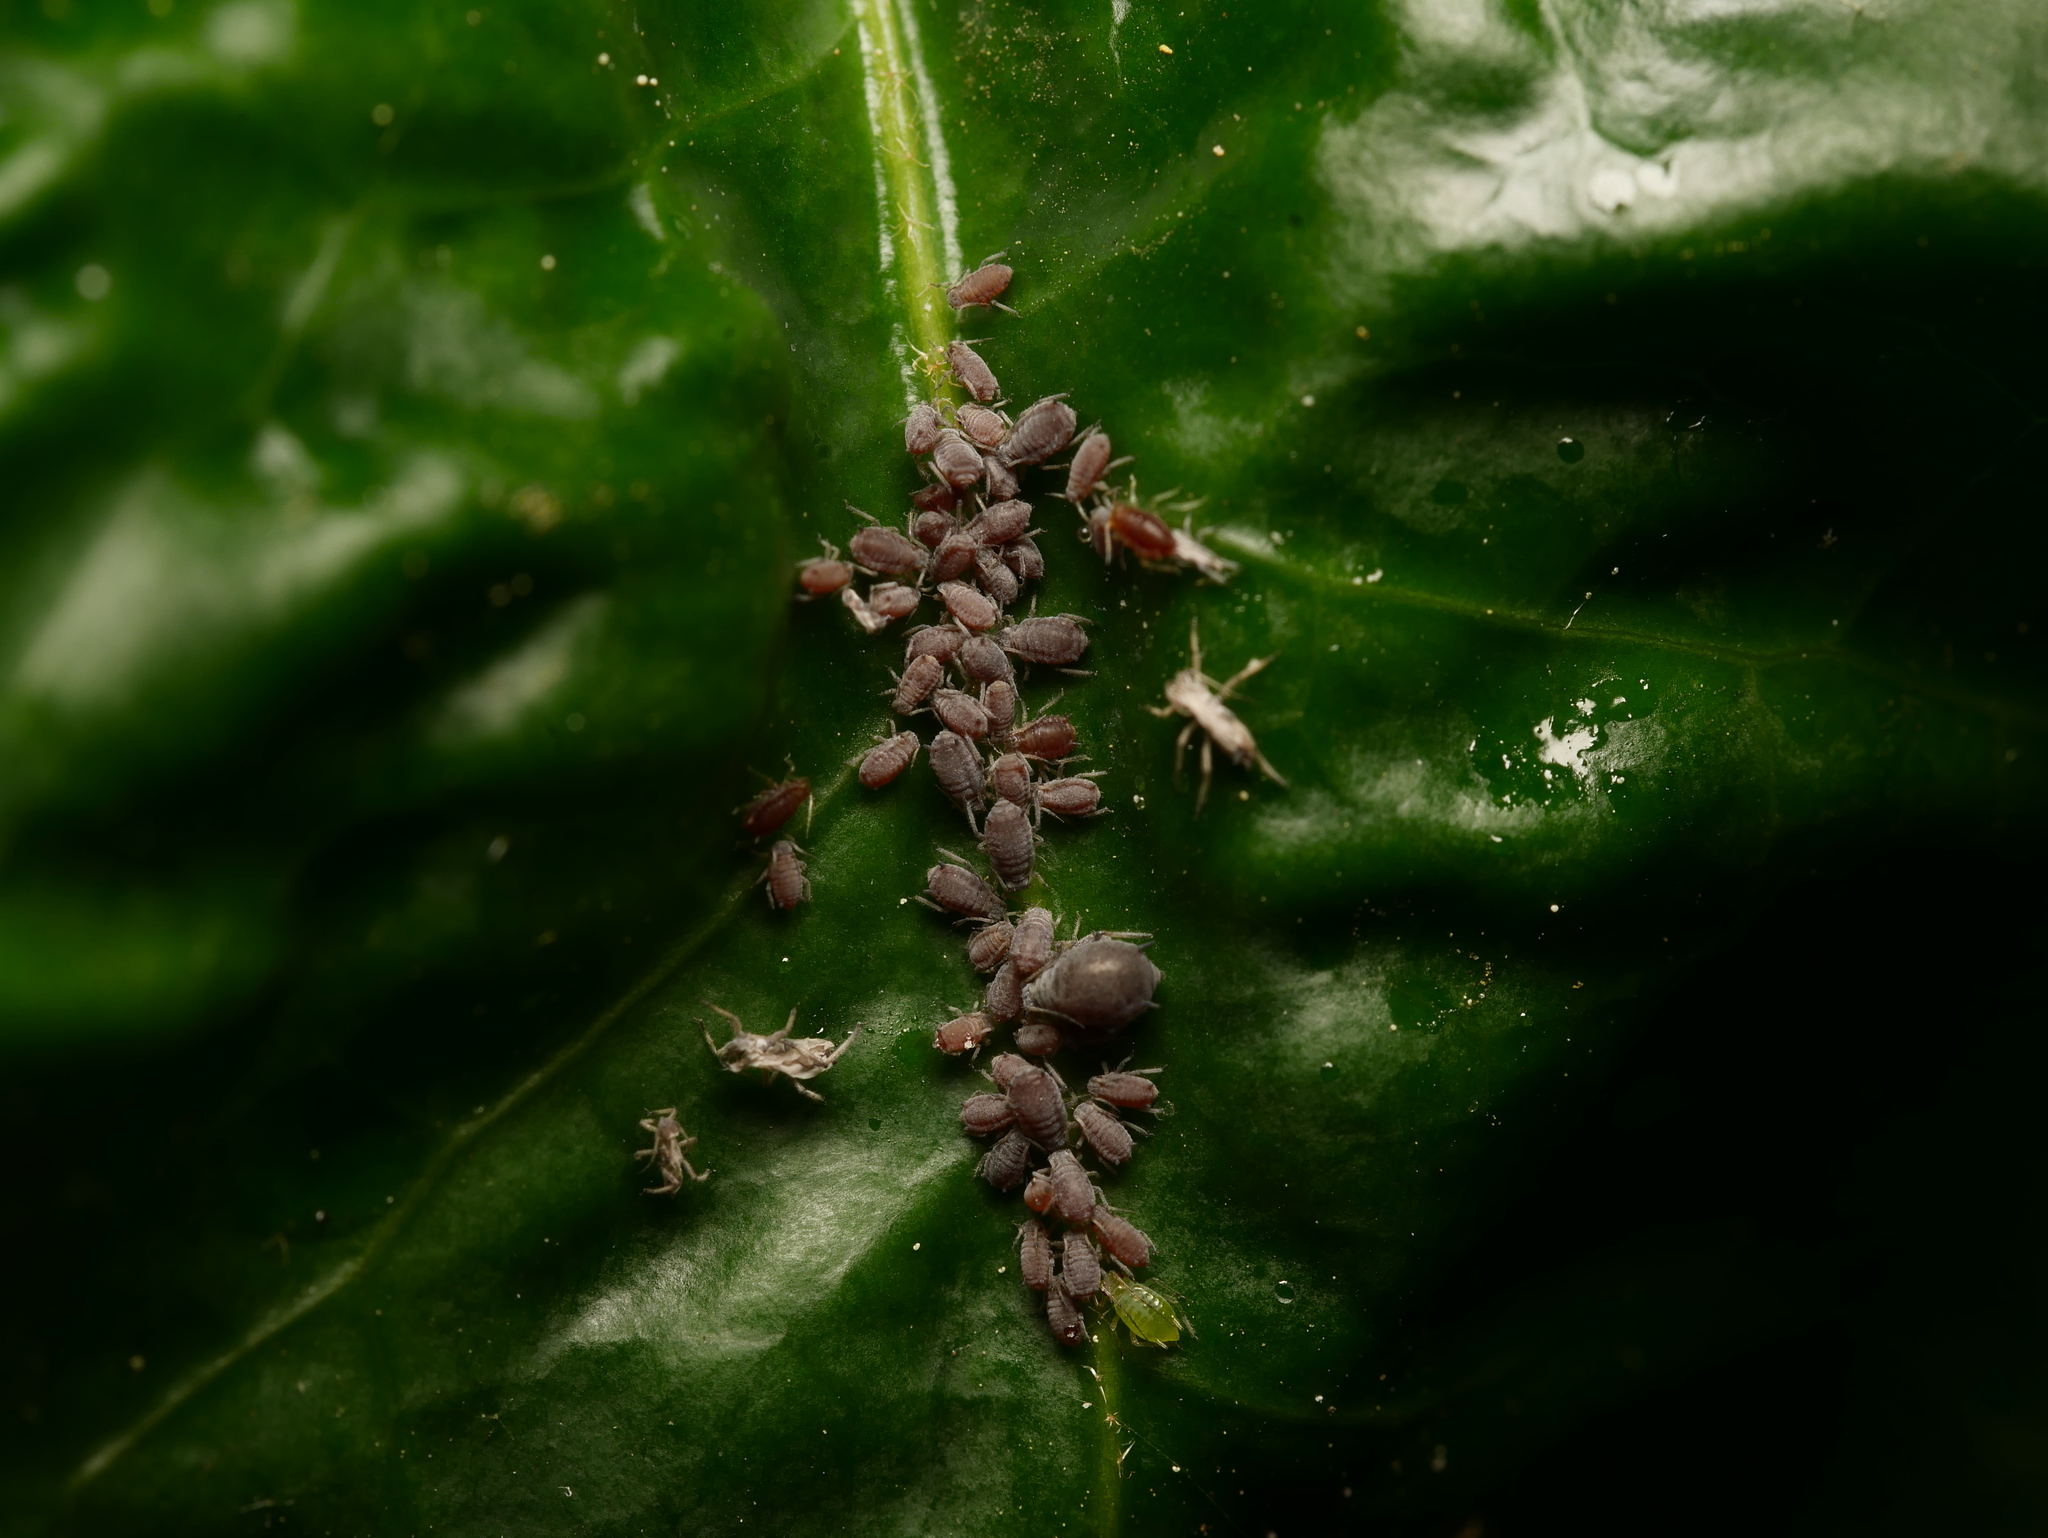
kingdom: Animalia
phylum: Arthropoda
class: Insecta
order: Hemiptera
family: Aphididae
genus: Aphis
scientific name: Aphis hederae
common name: Ivy aphid
